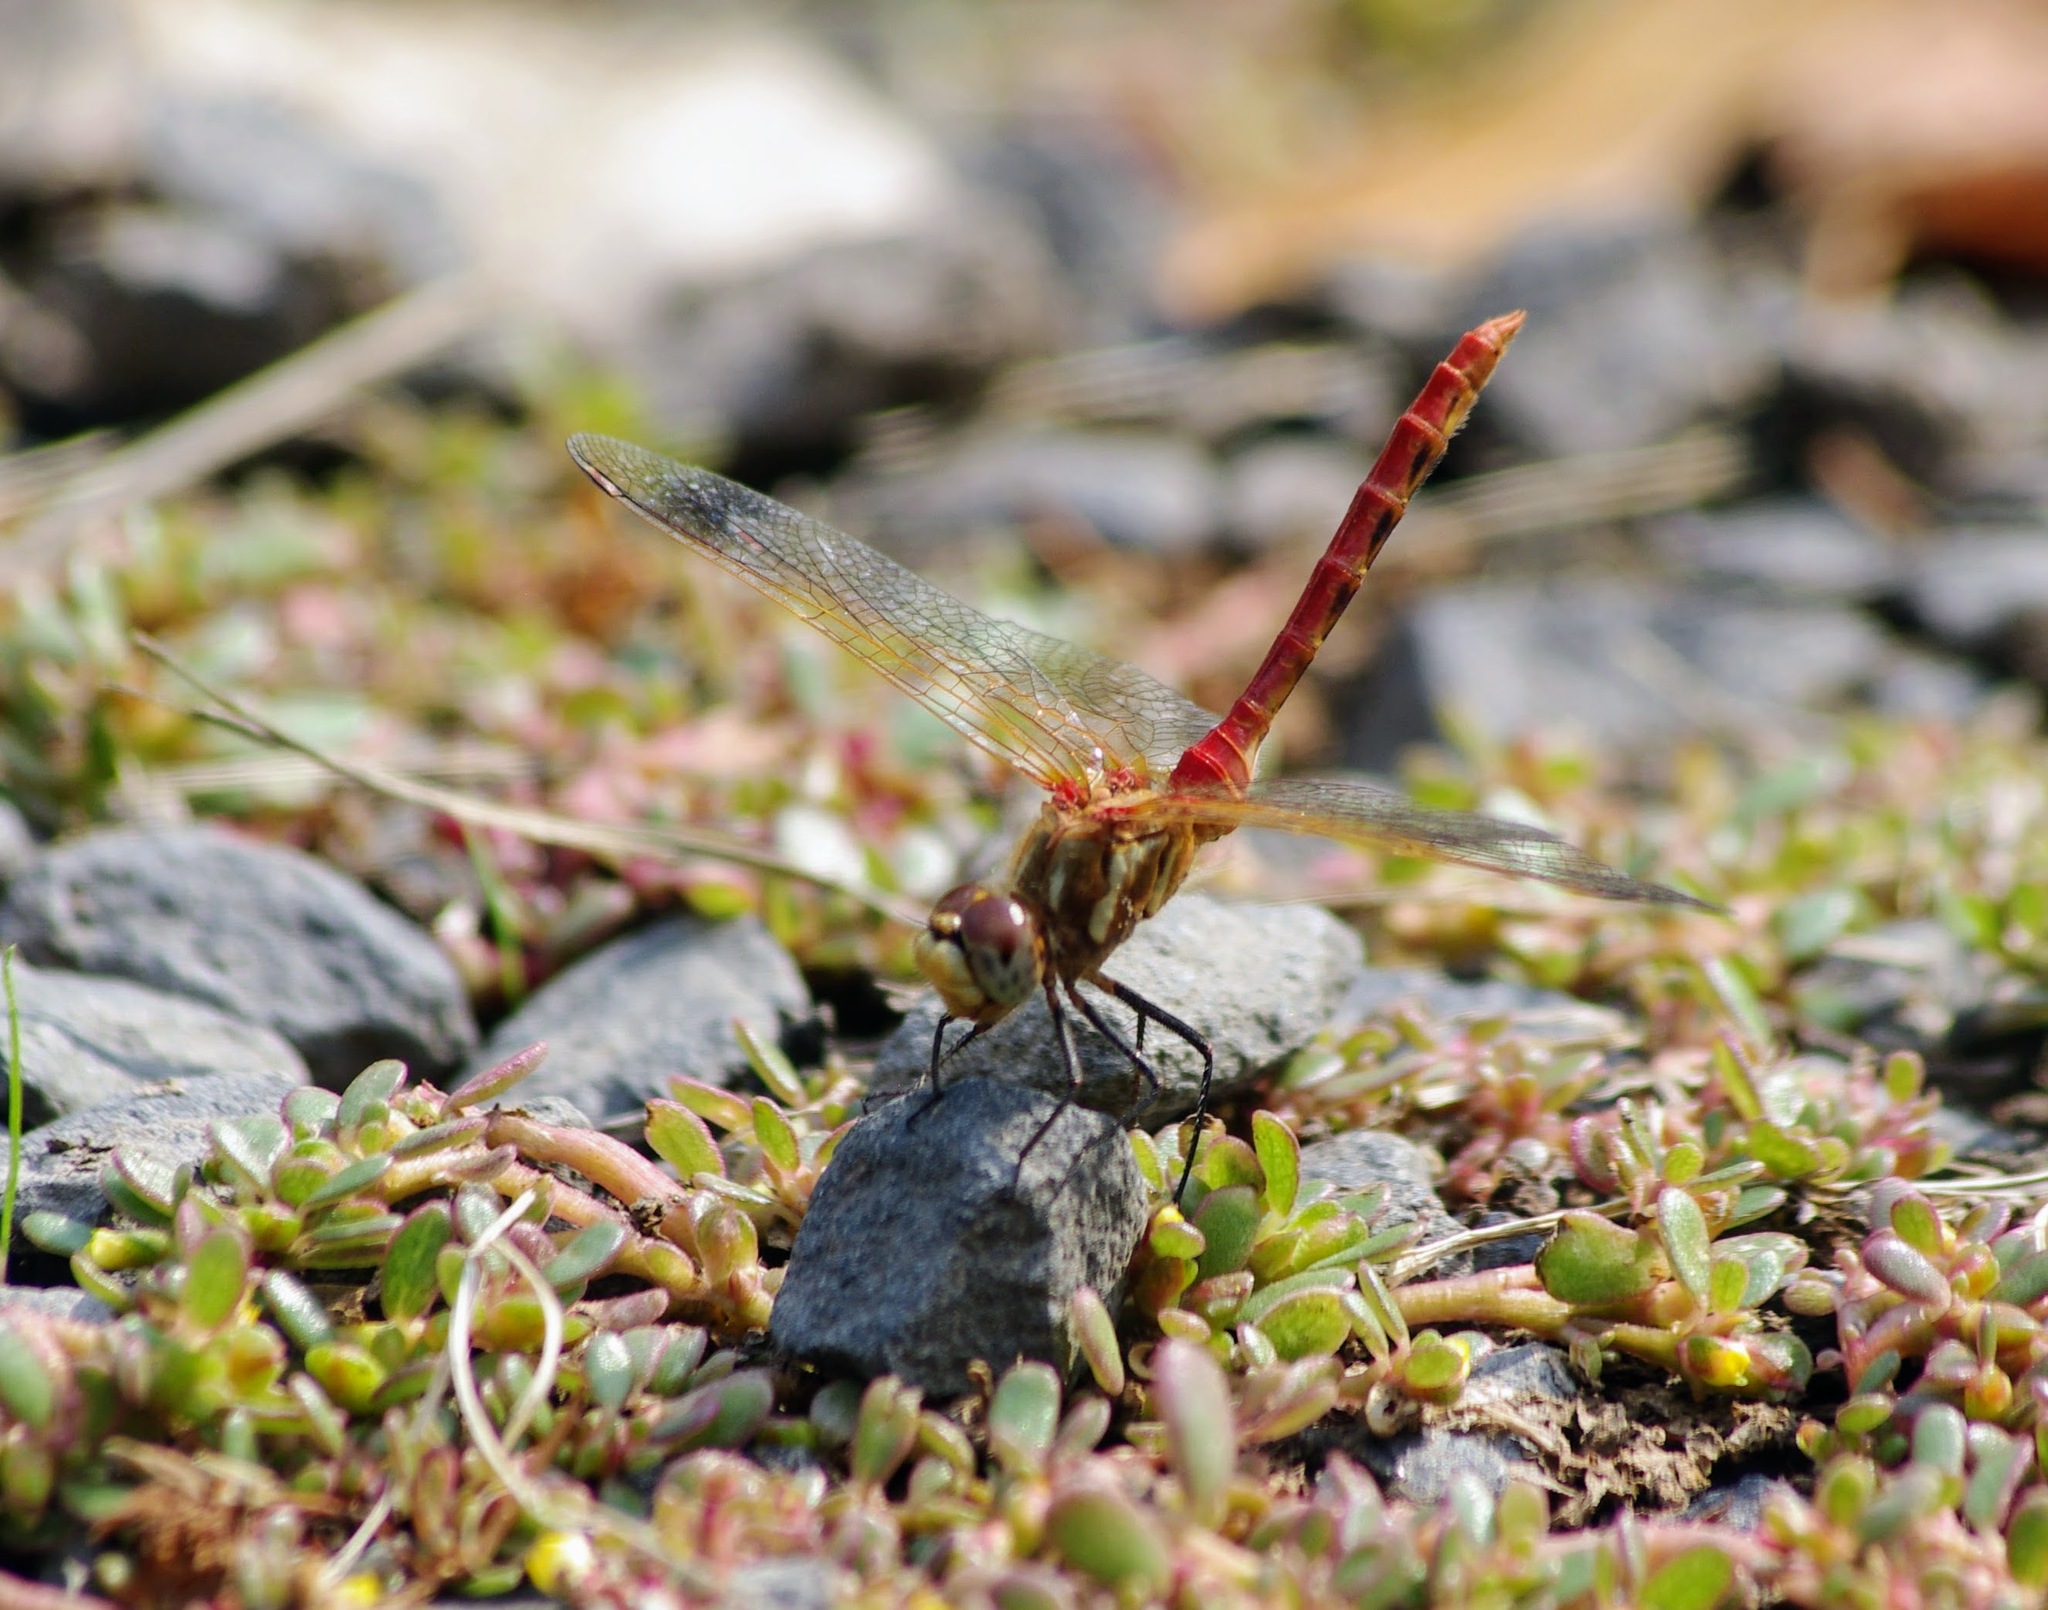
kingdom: Animalia
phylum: Arthropoda
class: Insecta
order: Odonata
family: Libellulidae
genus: Sympetrum
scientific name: Sympetrum pallipes
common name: Striped meadowhawk
